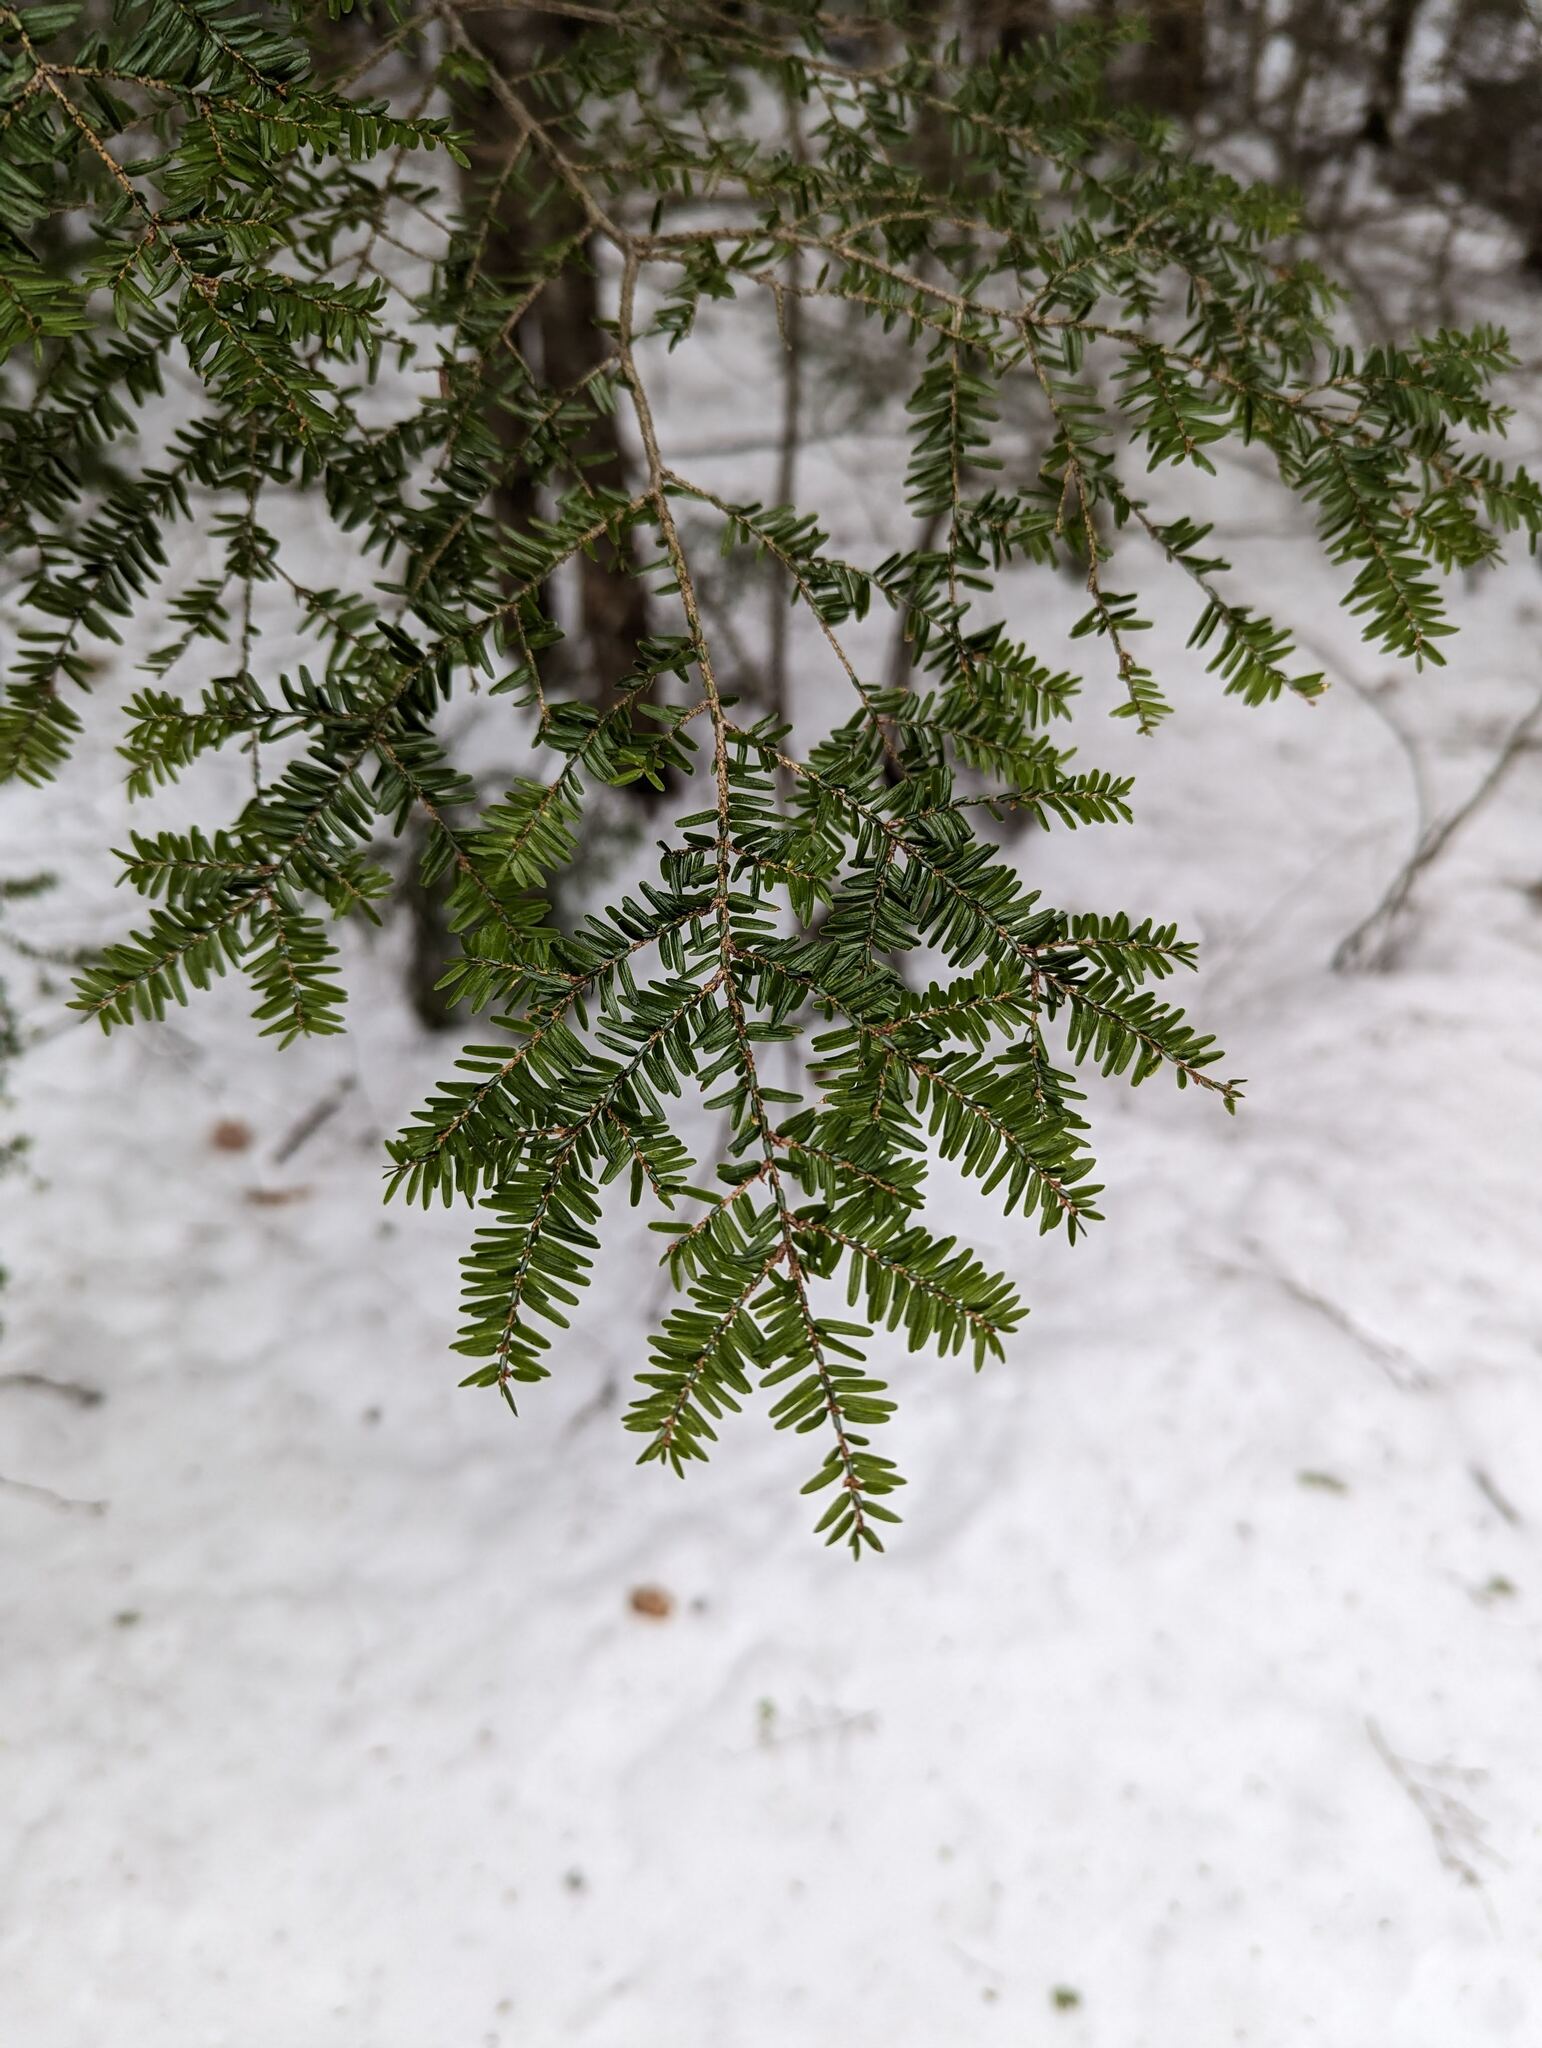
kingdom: Plantae
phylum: Tracheophyta
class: Pinopsida
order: Pinales
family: Pinaceae
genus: Tsuga
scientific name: Tsuga canadensis
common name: Eastern hemlock
